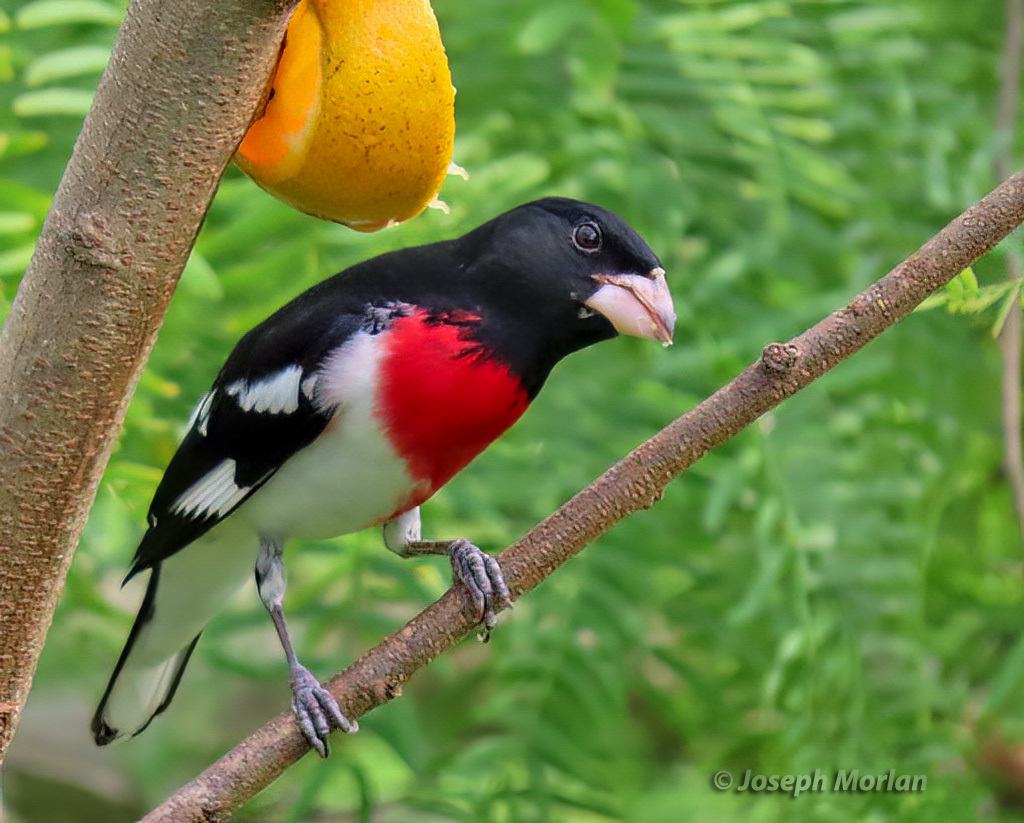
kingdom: Animalia
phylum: Chordata
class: Aves
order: Passeriformes
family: Cardinalidae
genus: Pheucticus
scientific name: Pheucticus ludovicianus
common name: Rose-breasted grosbeak
